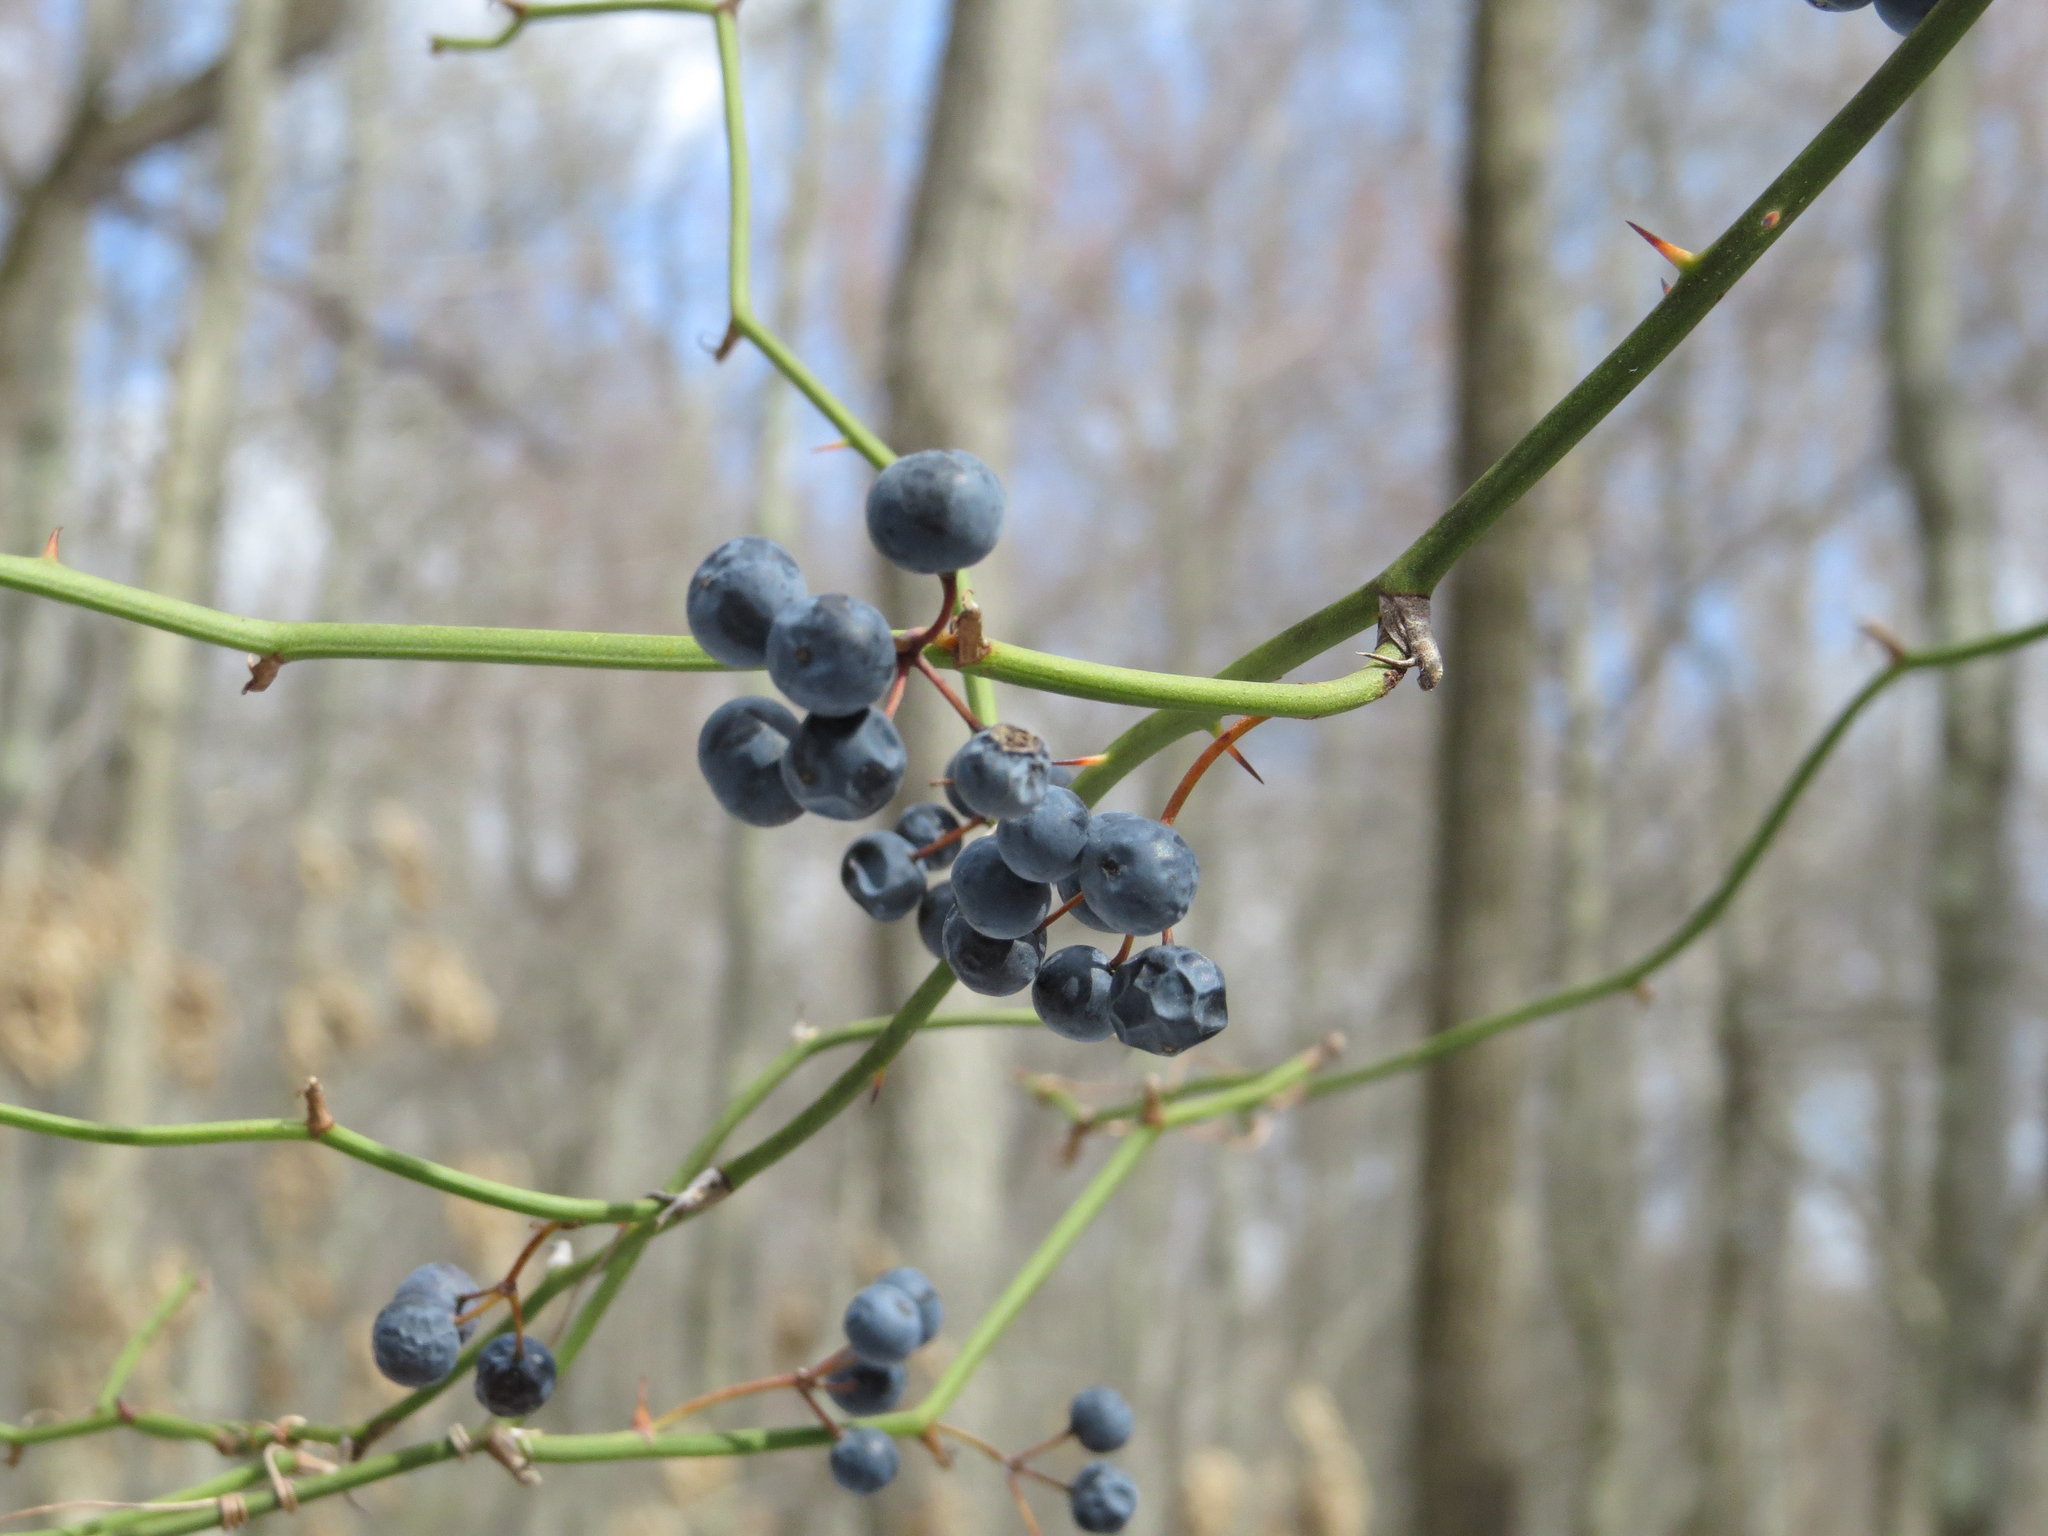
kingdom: Plantae
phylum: Tracheophyta
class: Liliopsida
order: Liliales
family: Smilacaceae
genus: Smilax
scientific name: Smilax rotundifolia
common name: Bullbriar
